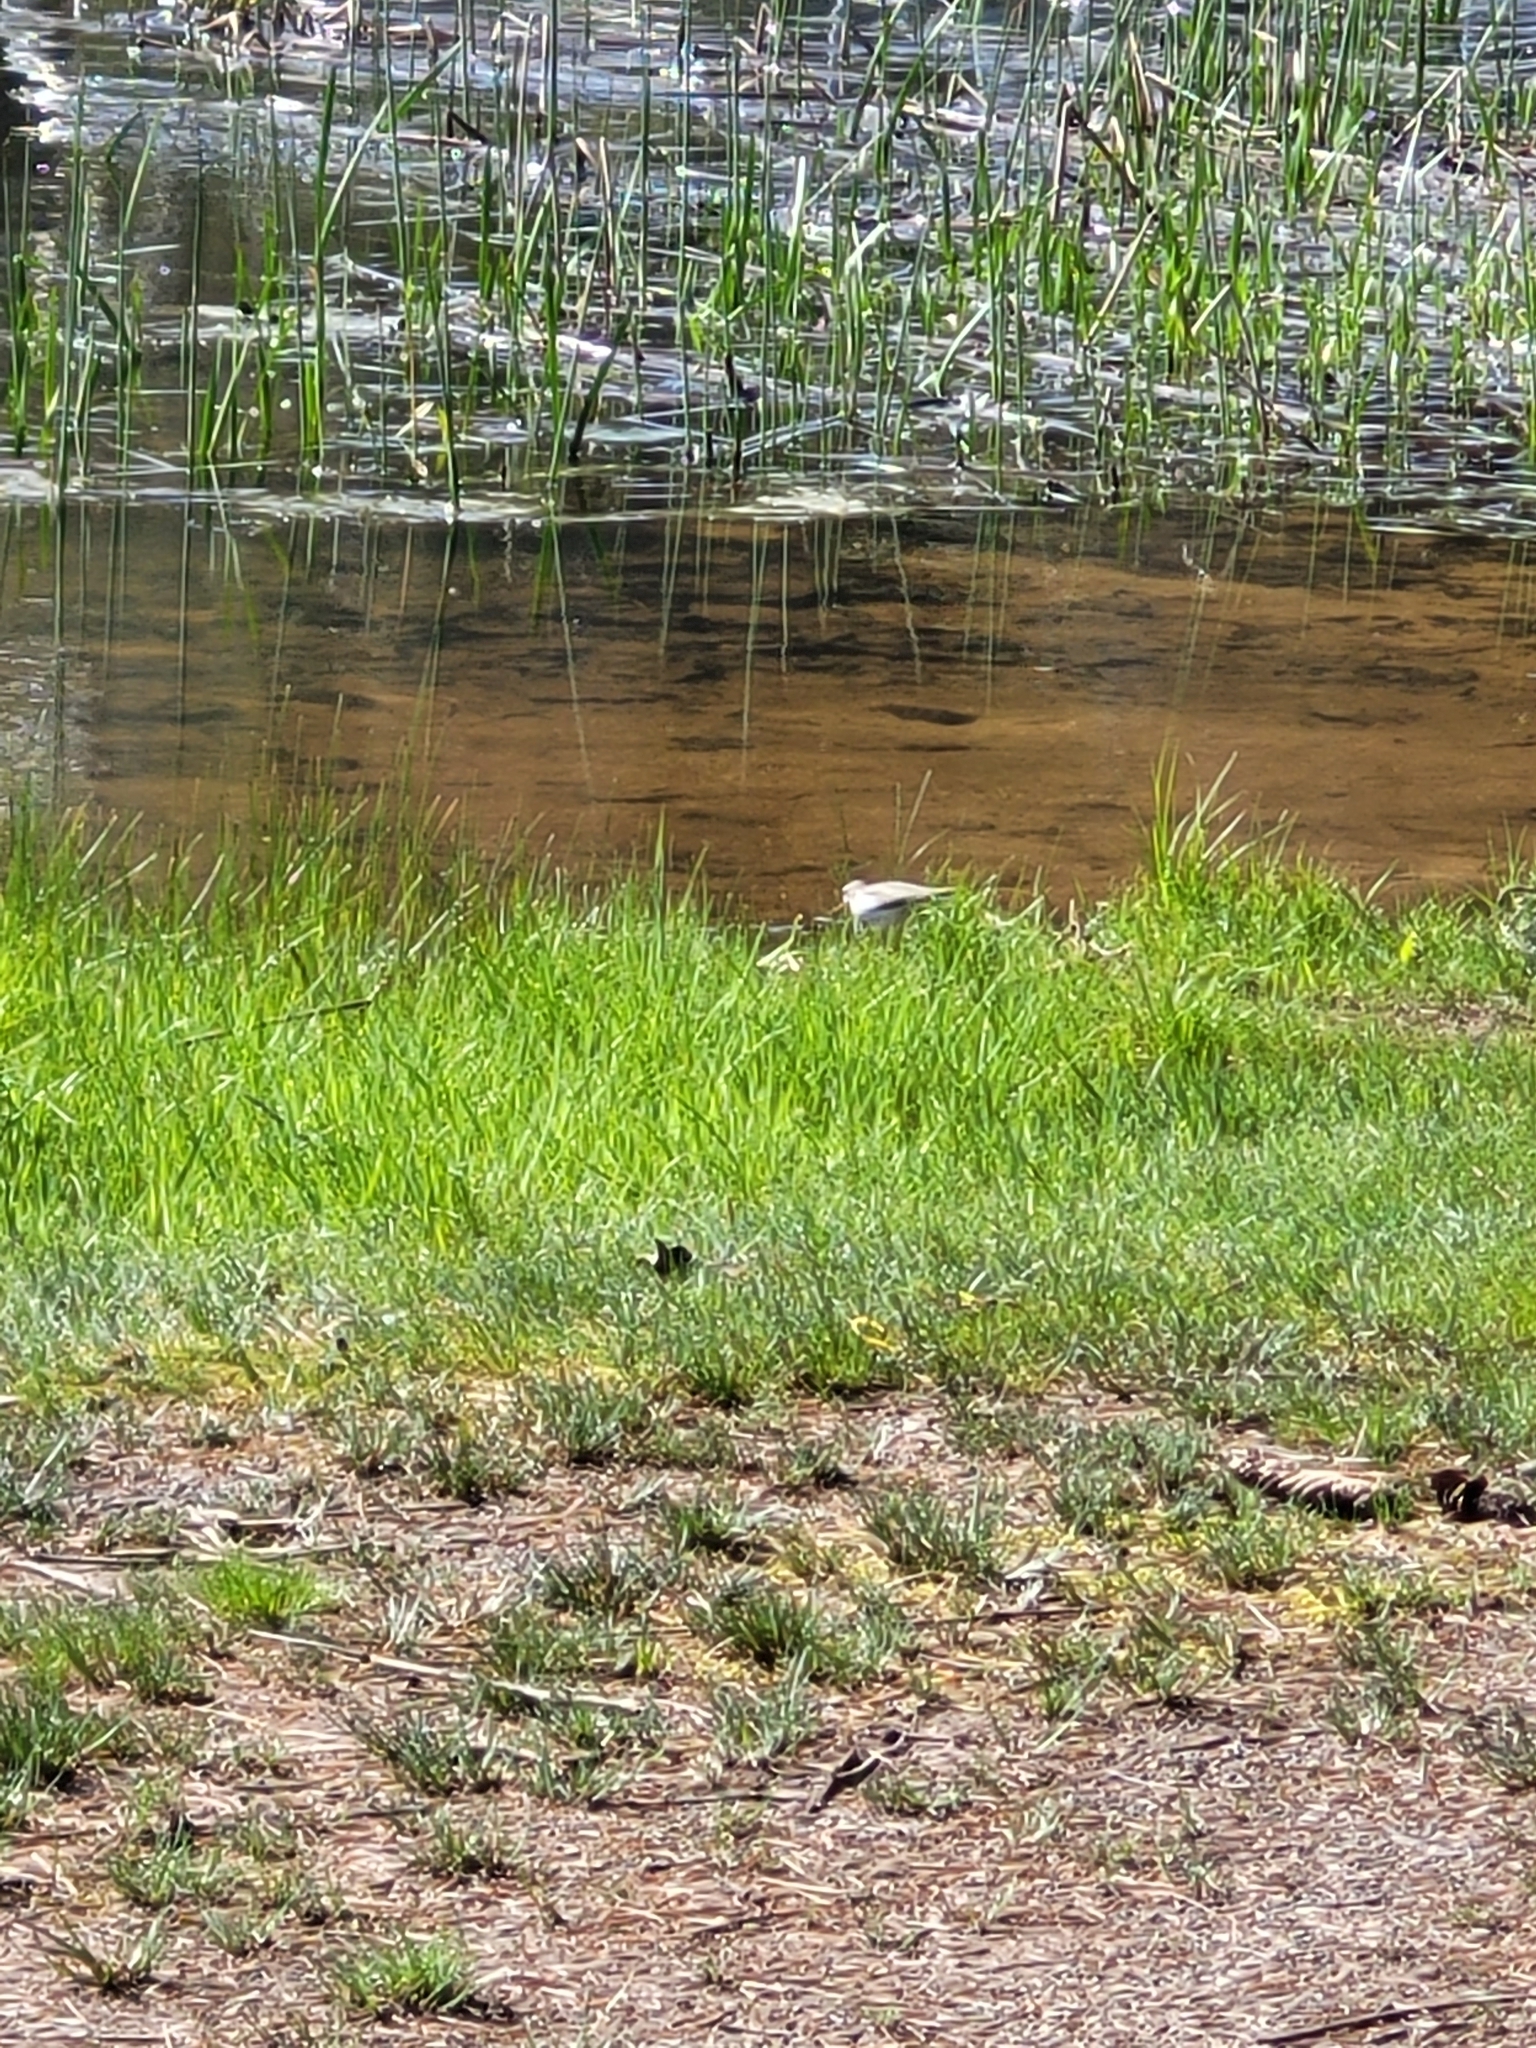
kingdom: Animalia
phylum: Chordata
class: Aves
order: Charadriiformes
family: Scolopacidae
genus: Actitis
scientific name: Actitis macularius
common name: Spotted sandpiper
